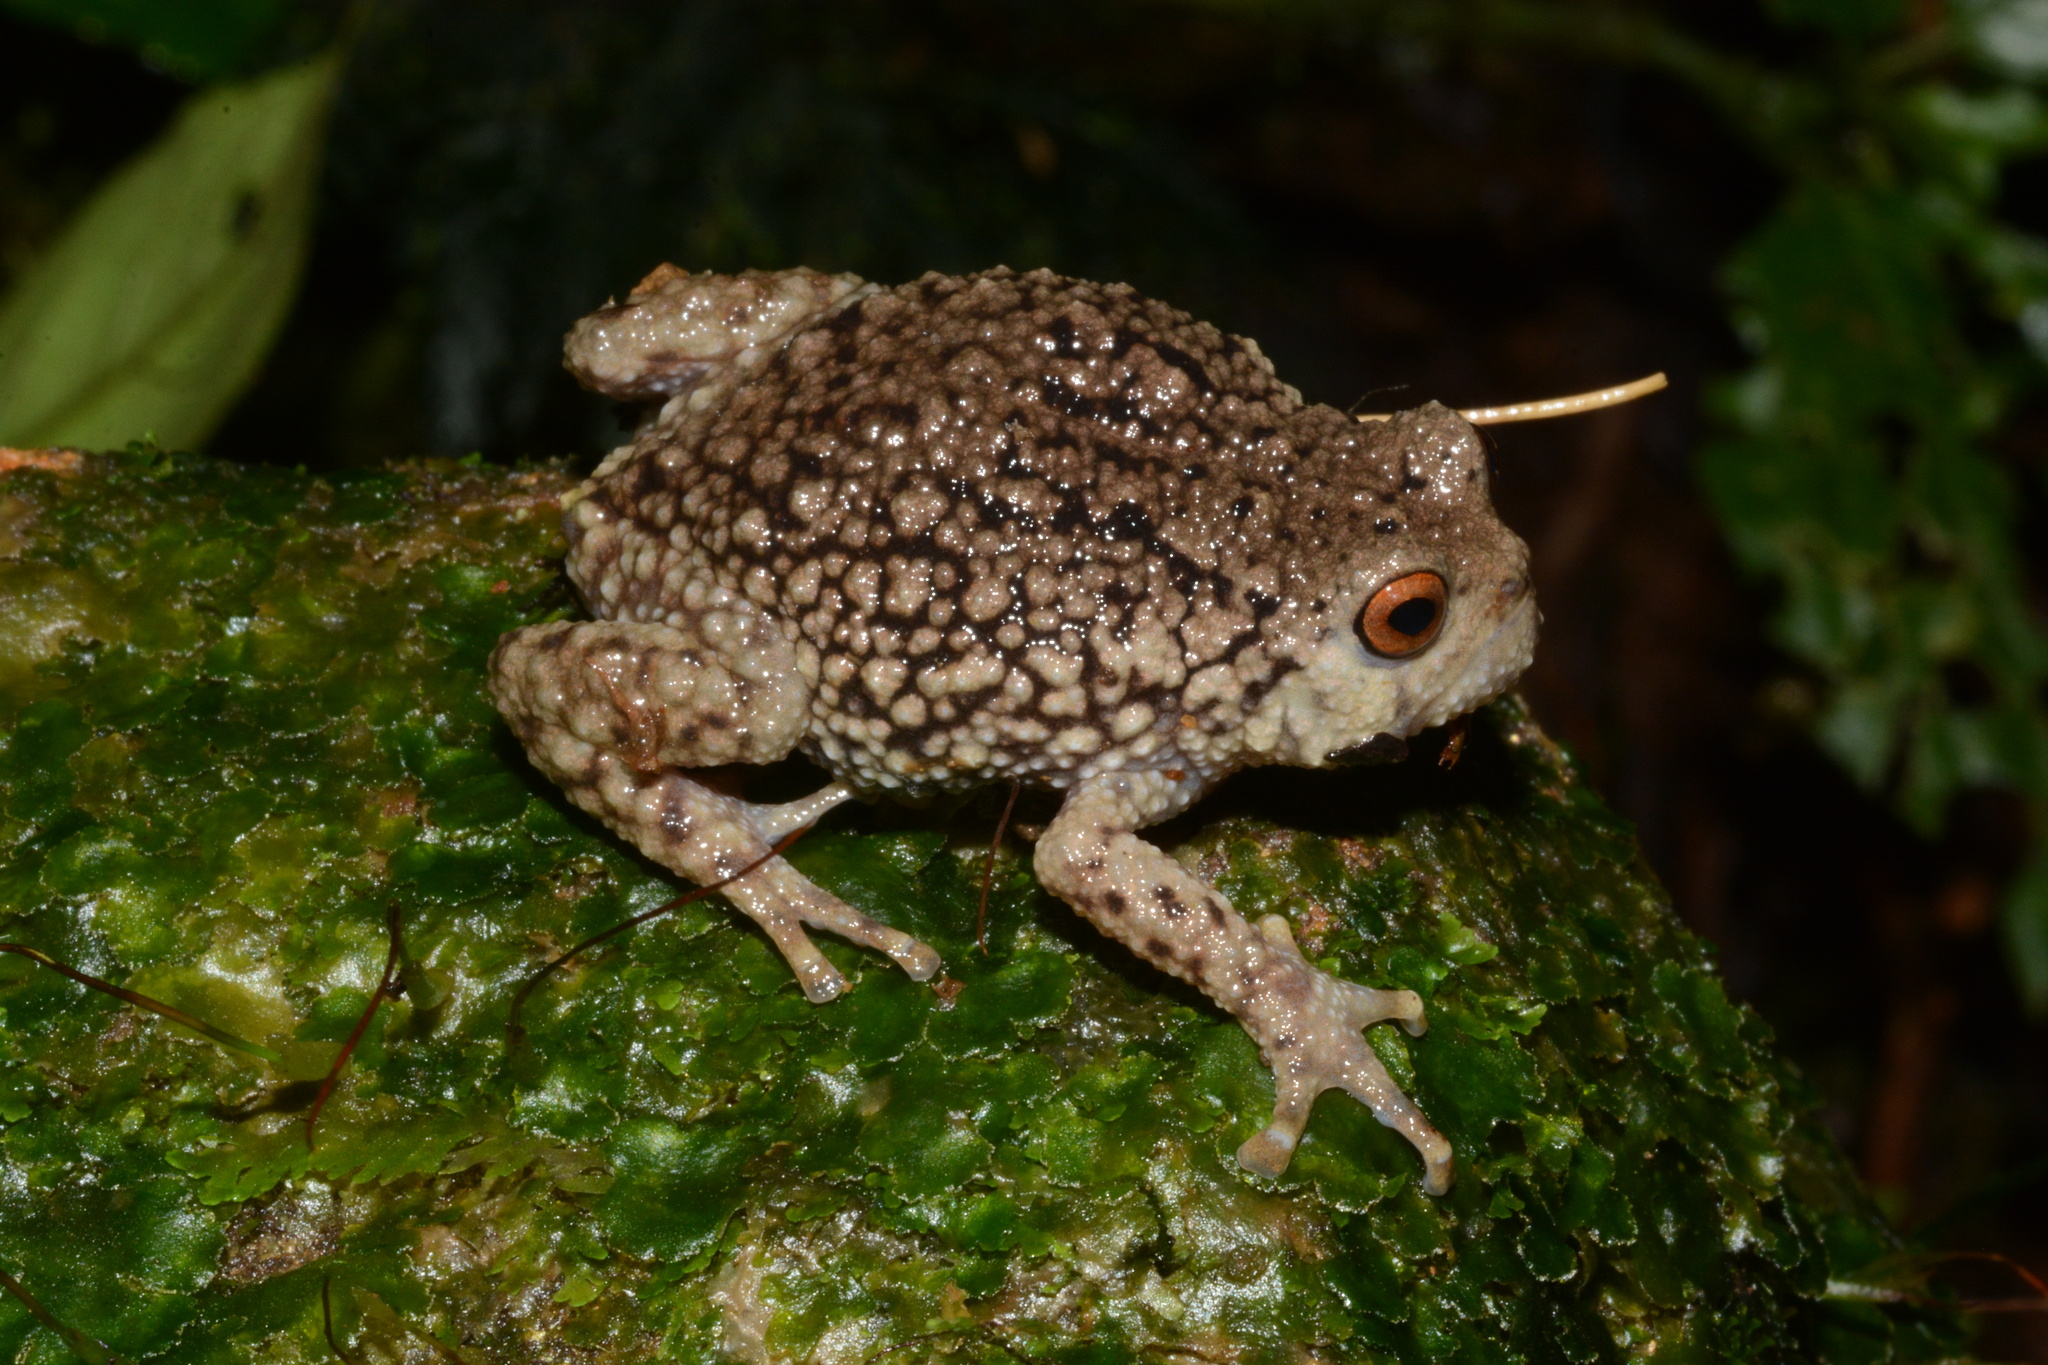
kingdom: Animalia
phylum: Chordata
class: Amphibia
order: Anura
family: Brevicipitidae
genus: Callulina
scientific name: Callulina hanseni
